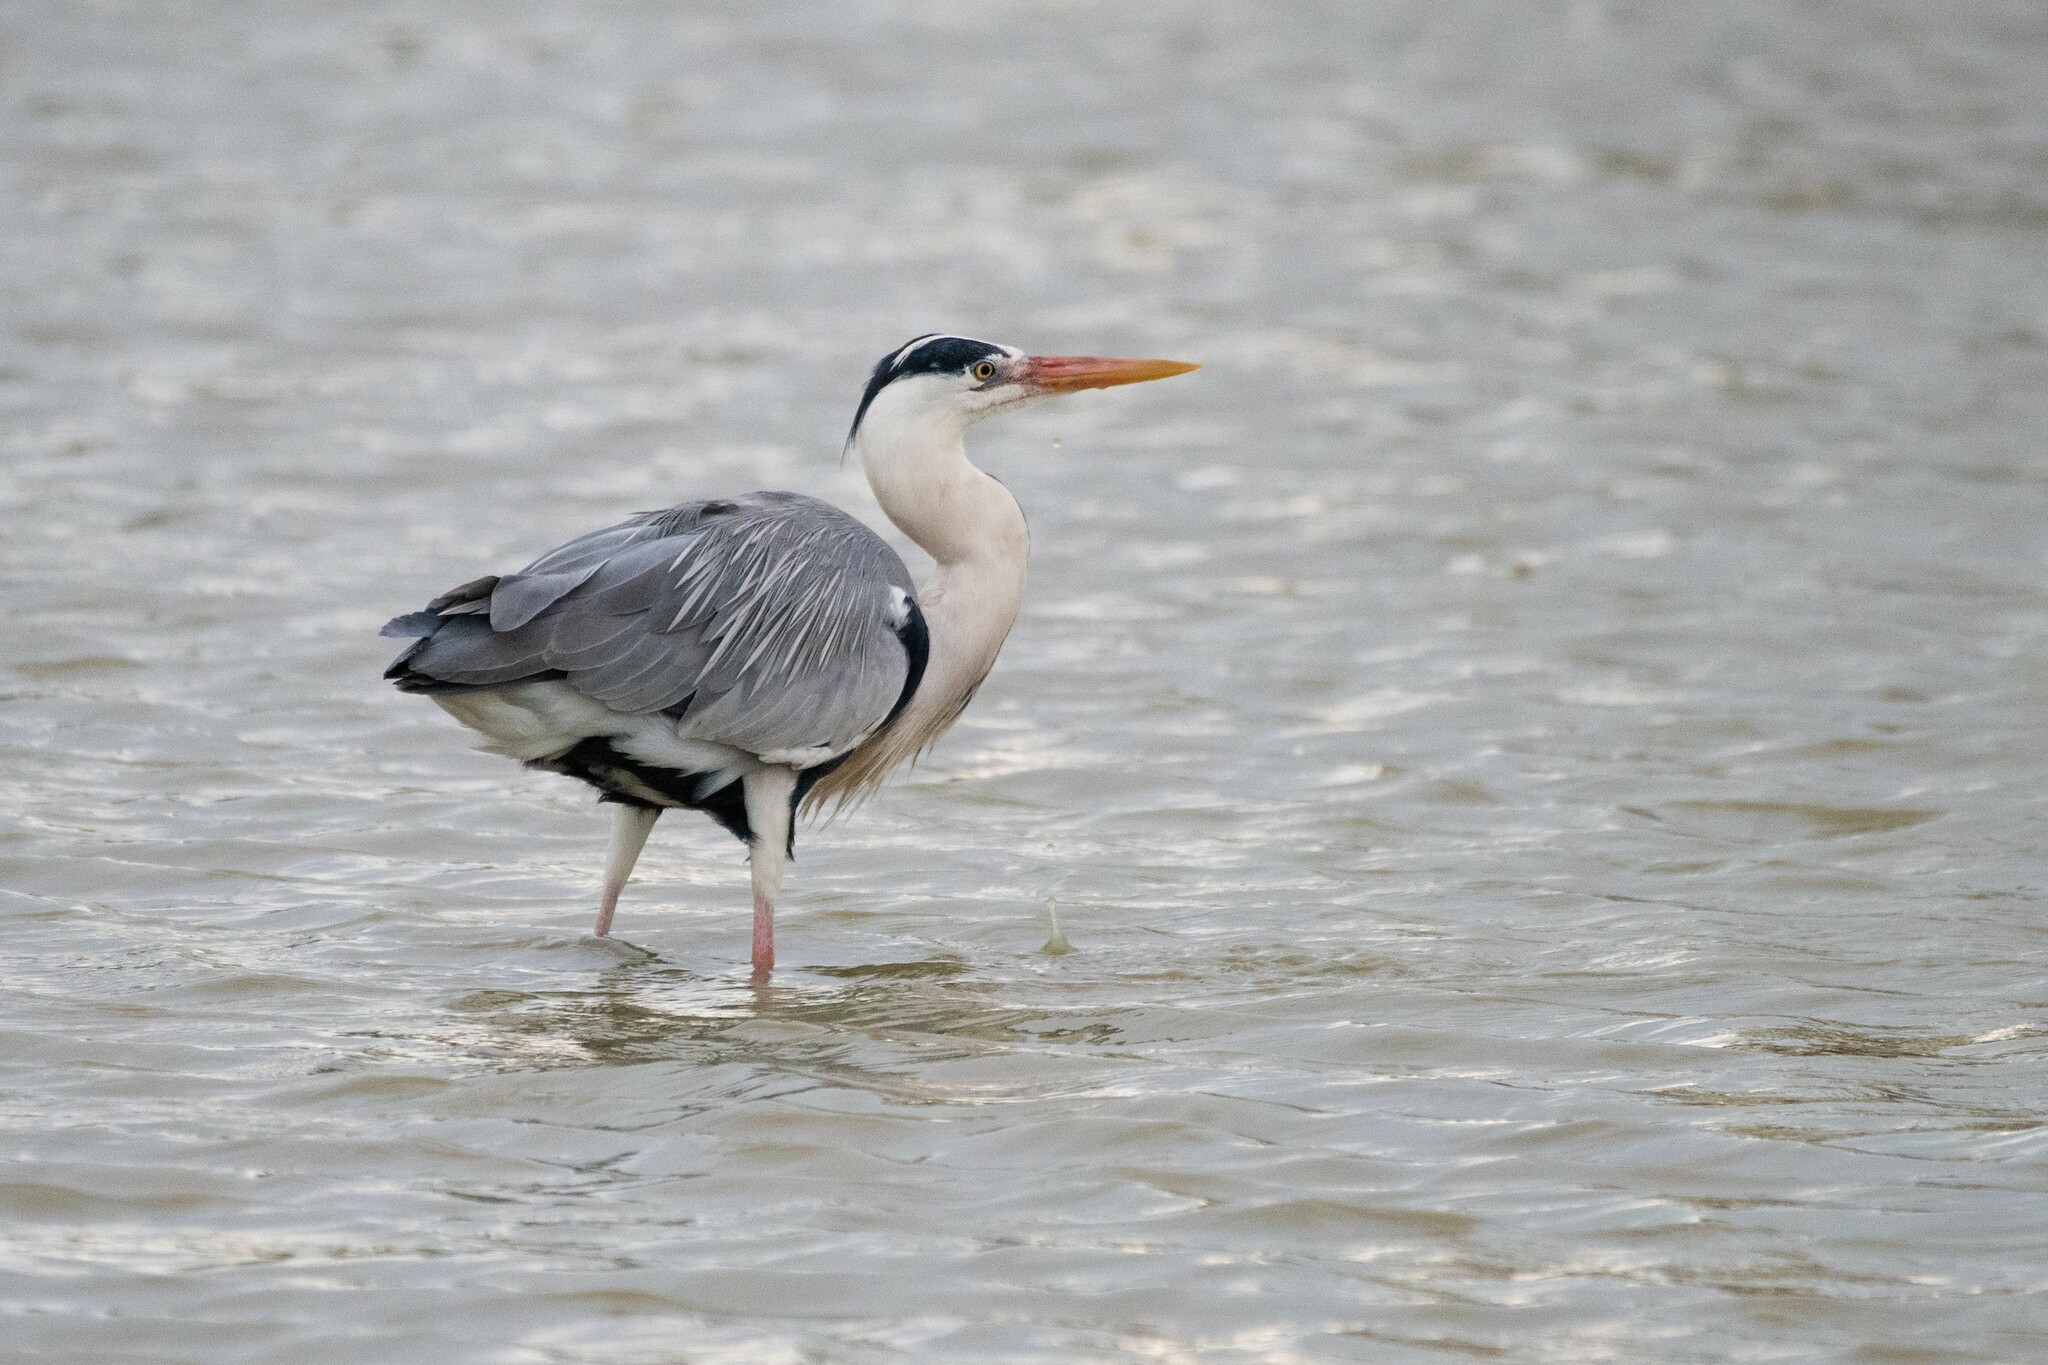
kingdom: Animalia
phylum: Chordata
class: Aves
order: Pelecaniformes
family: Ardeidae
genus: Ardea
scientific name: Ardea cinerea
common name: Grey heron
